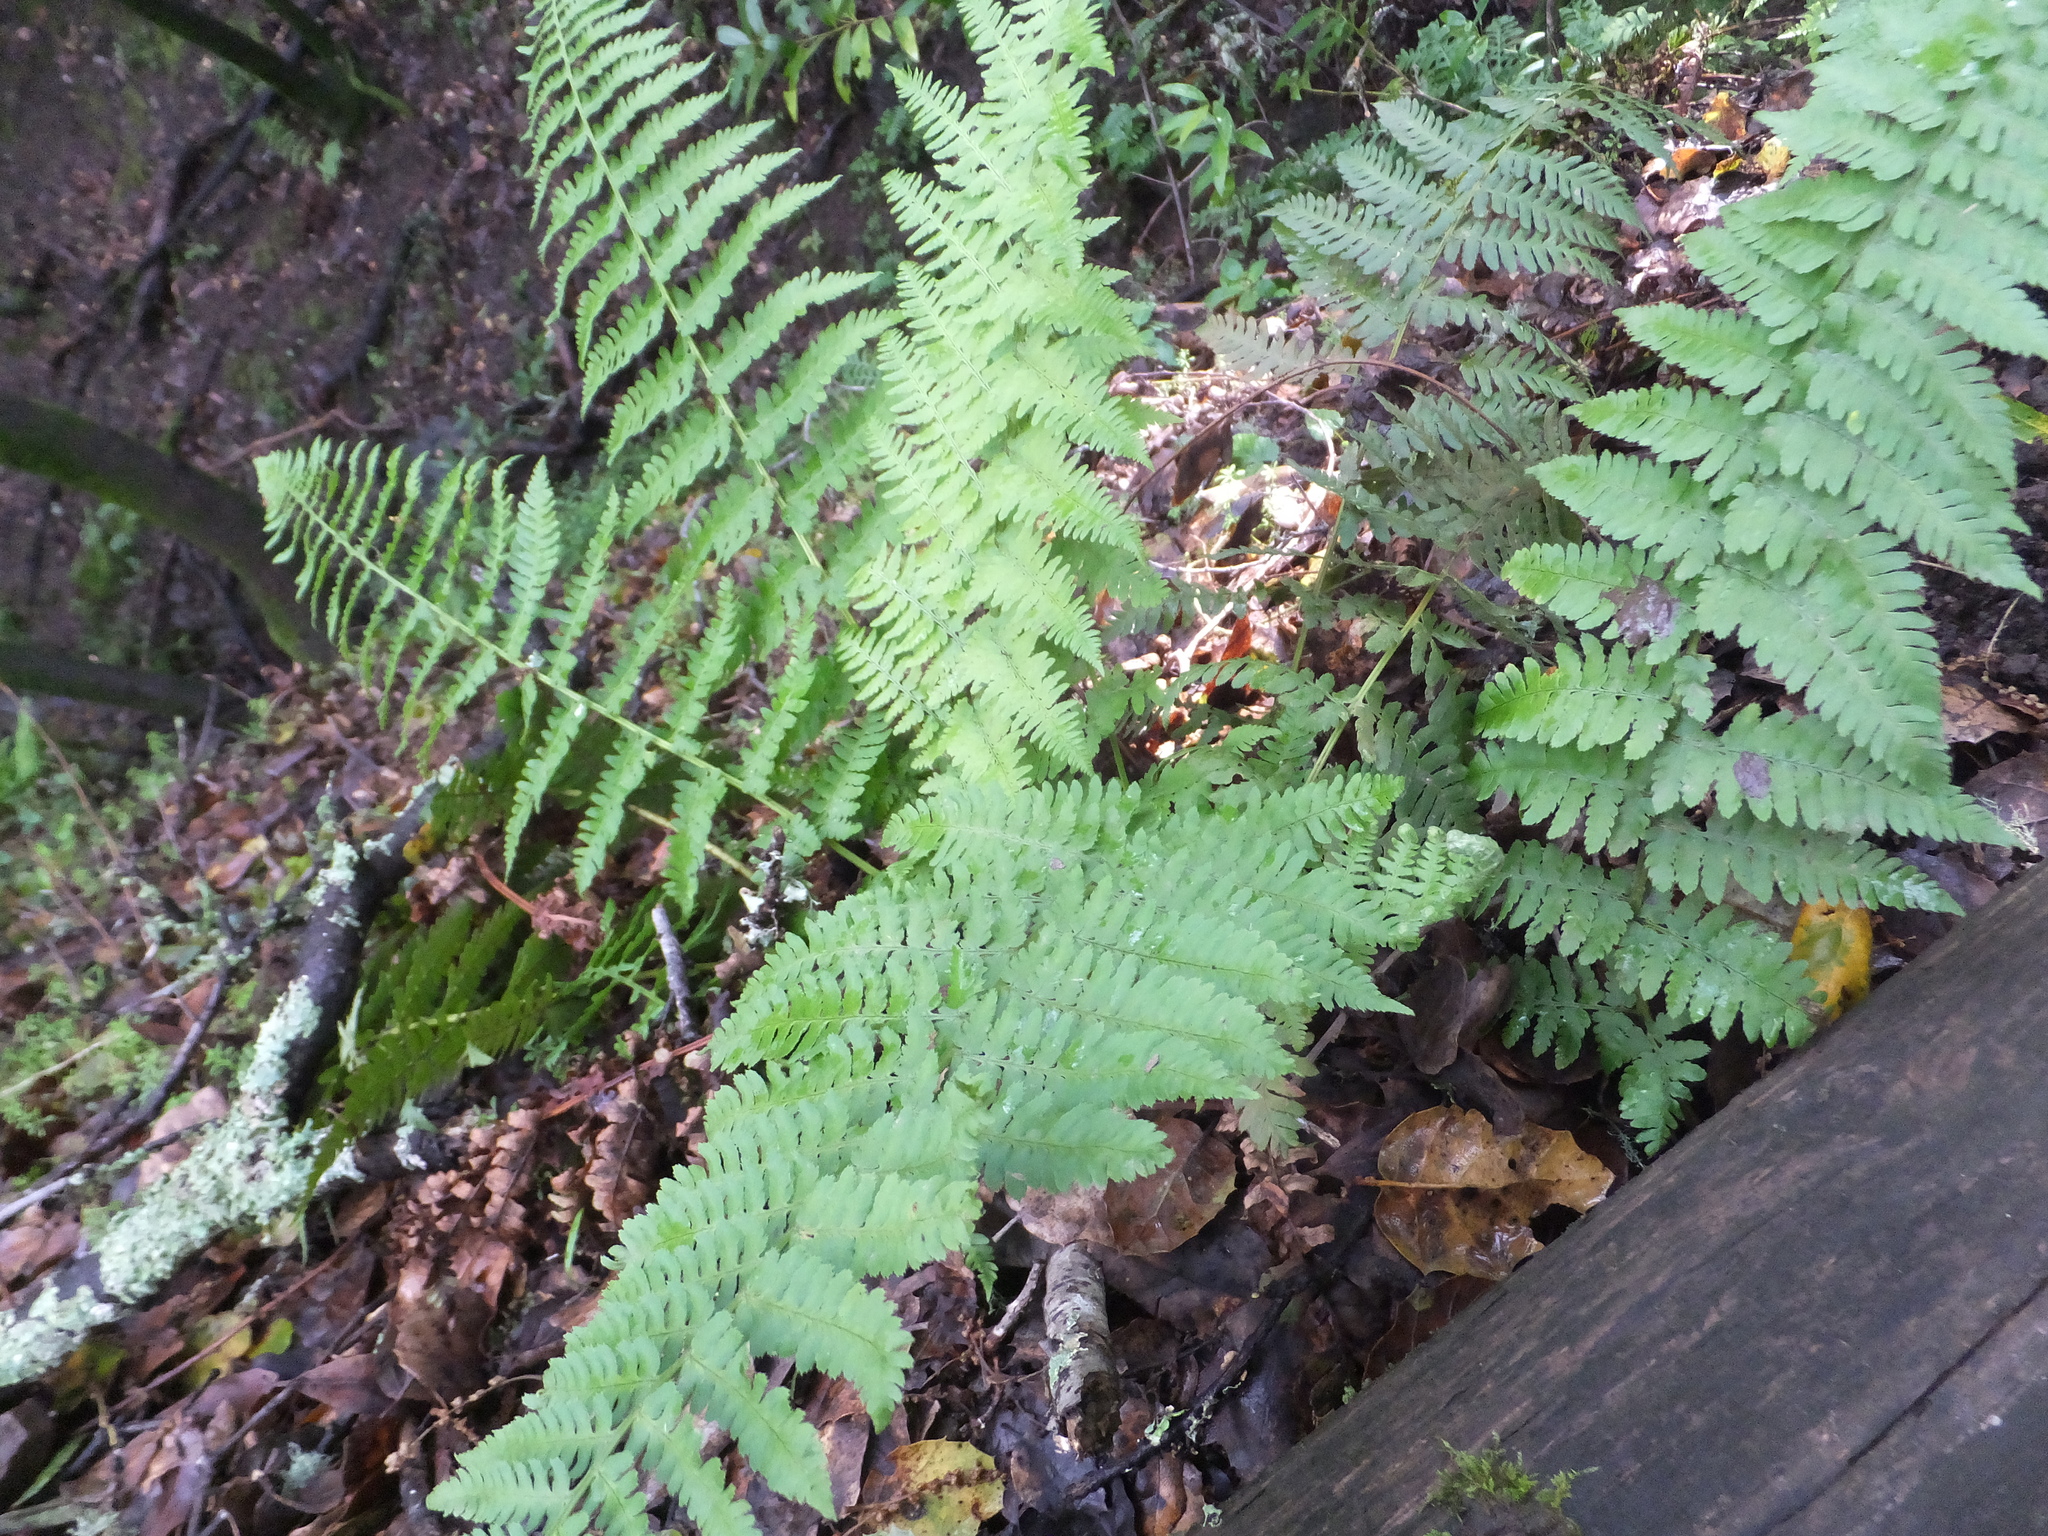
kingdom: Plantae
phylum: Tracheophyta
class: Polypodiopsida
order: Polypodiales
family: Dryopteridaceae
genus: Dryopteris
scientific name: Dryopteris arguta
